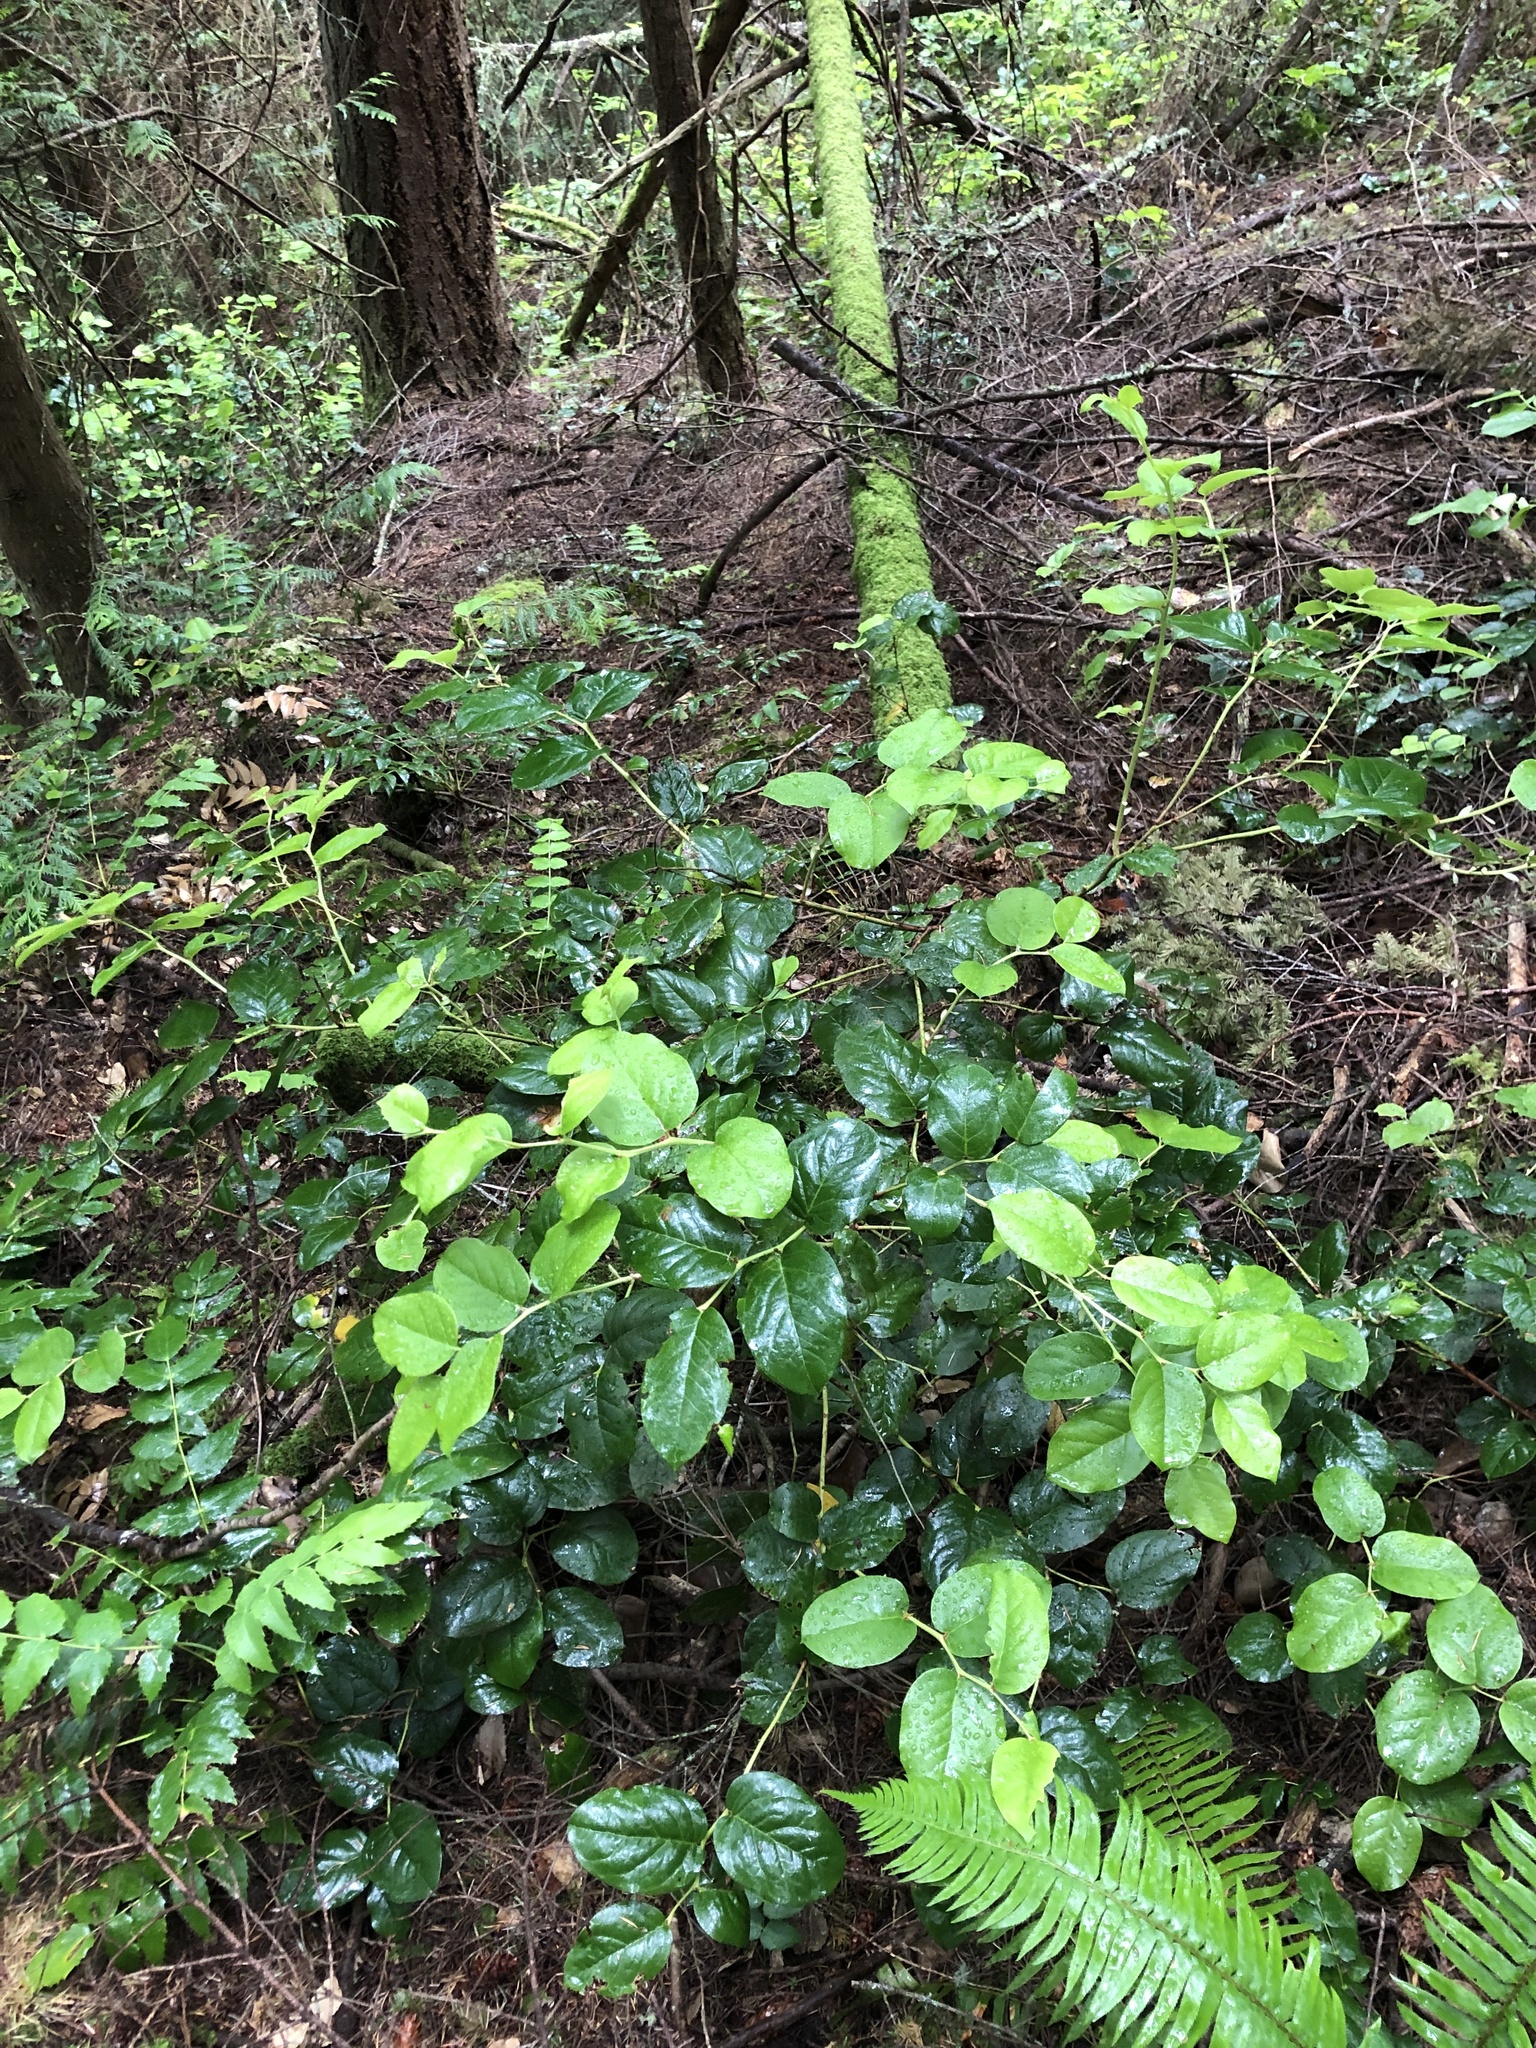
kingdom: Plantae
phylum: Tracheophyta
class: Magnoliopsida
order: Ericales
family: Ericaceae
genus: Gaultheria
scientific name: Gaultheria shallon
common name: Shallon
